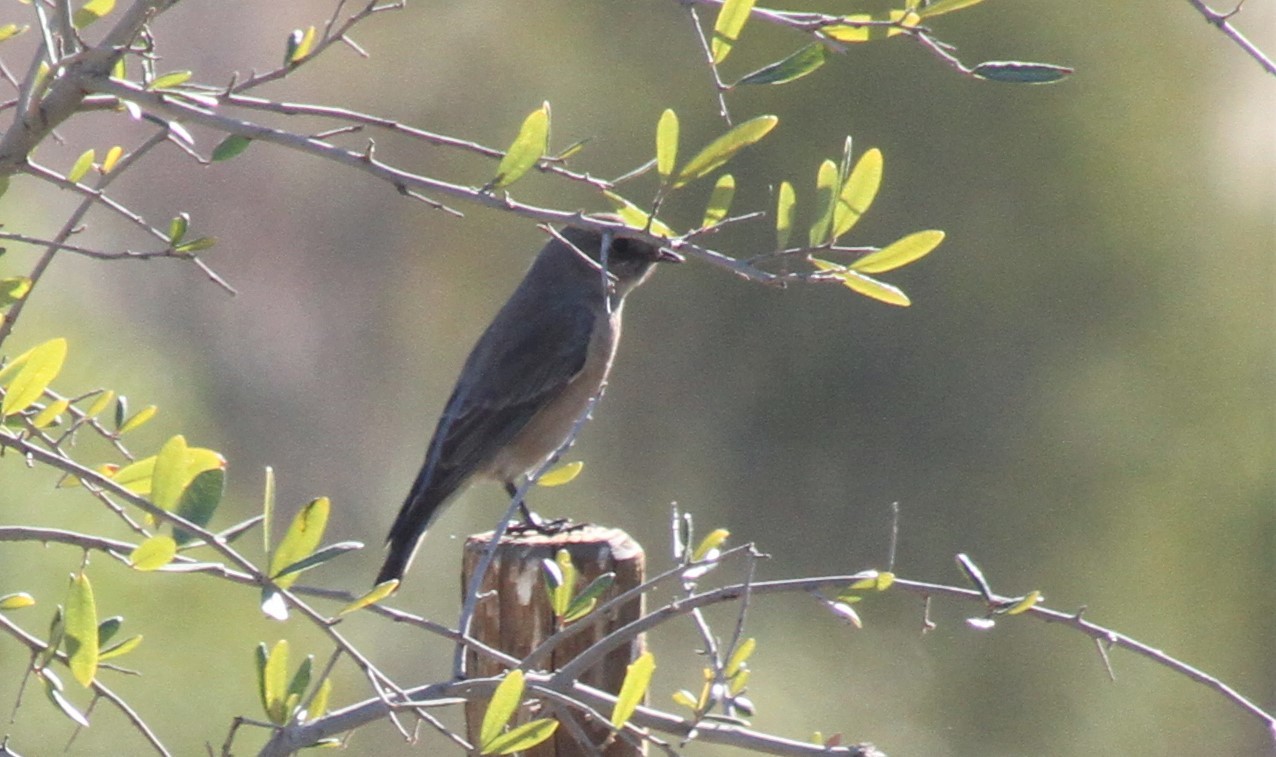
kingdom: Animalia
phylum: Chordata
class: Aves
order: Passeriformes
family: Turdidae
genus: Sialia
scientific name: Sialia mexicana
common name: Western bluebird
